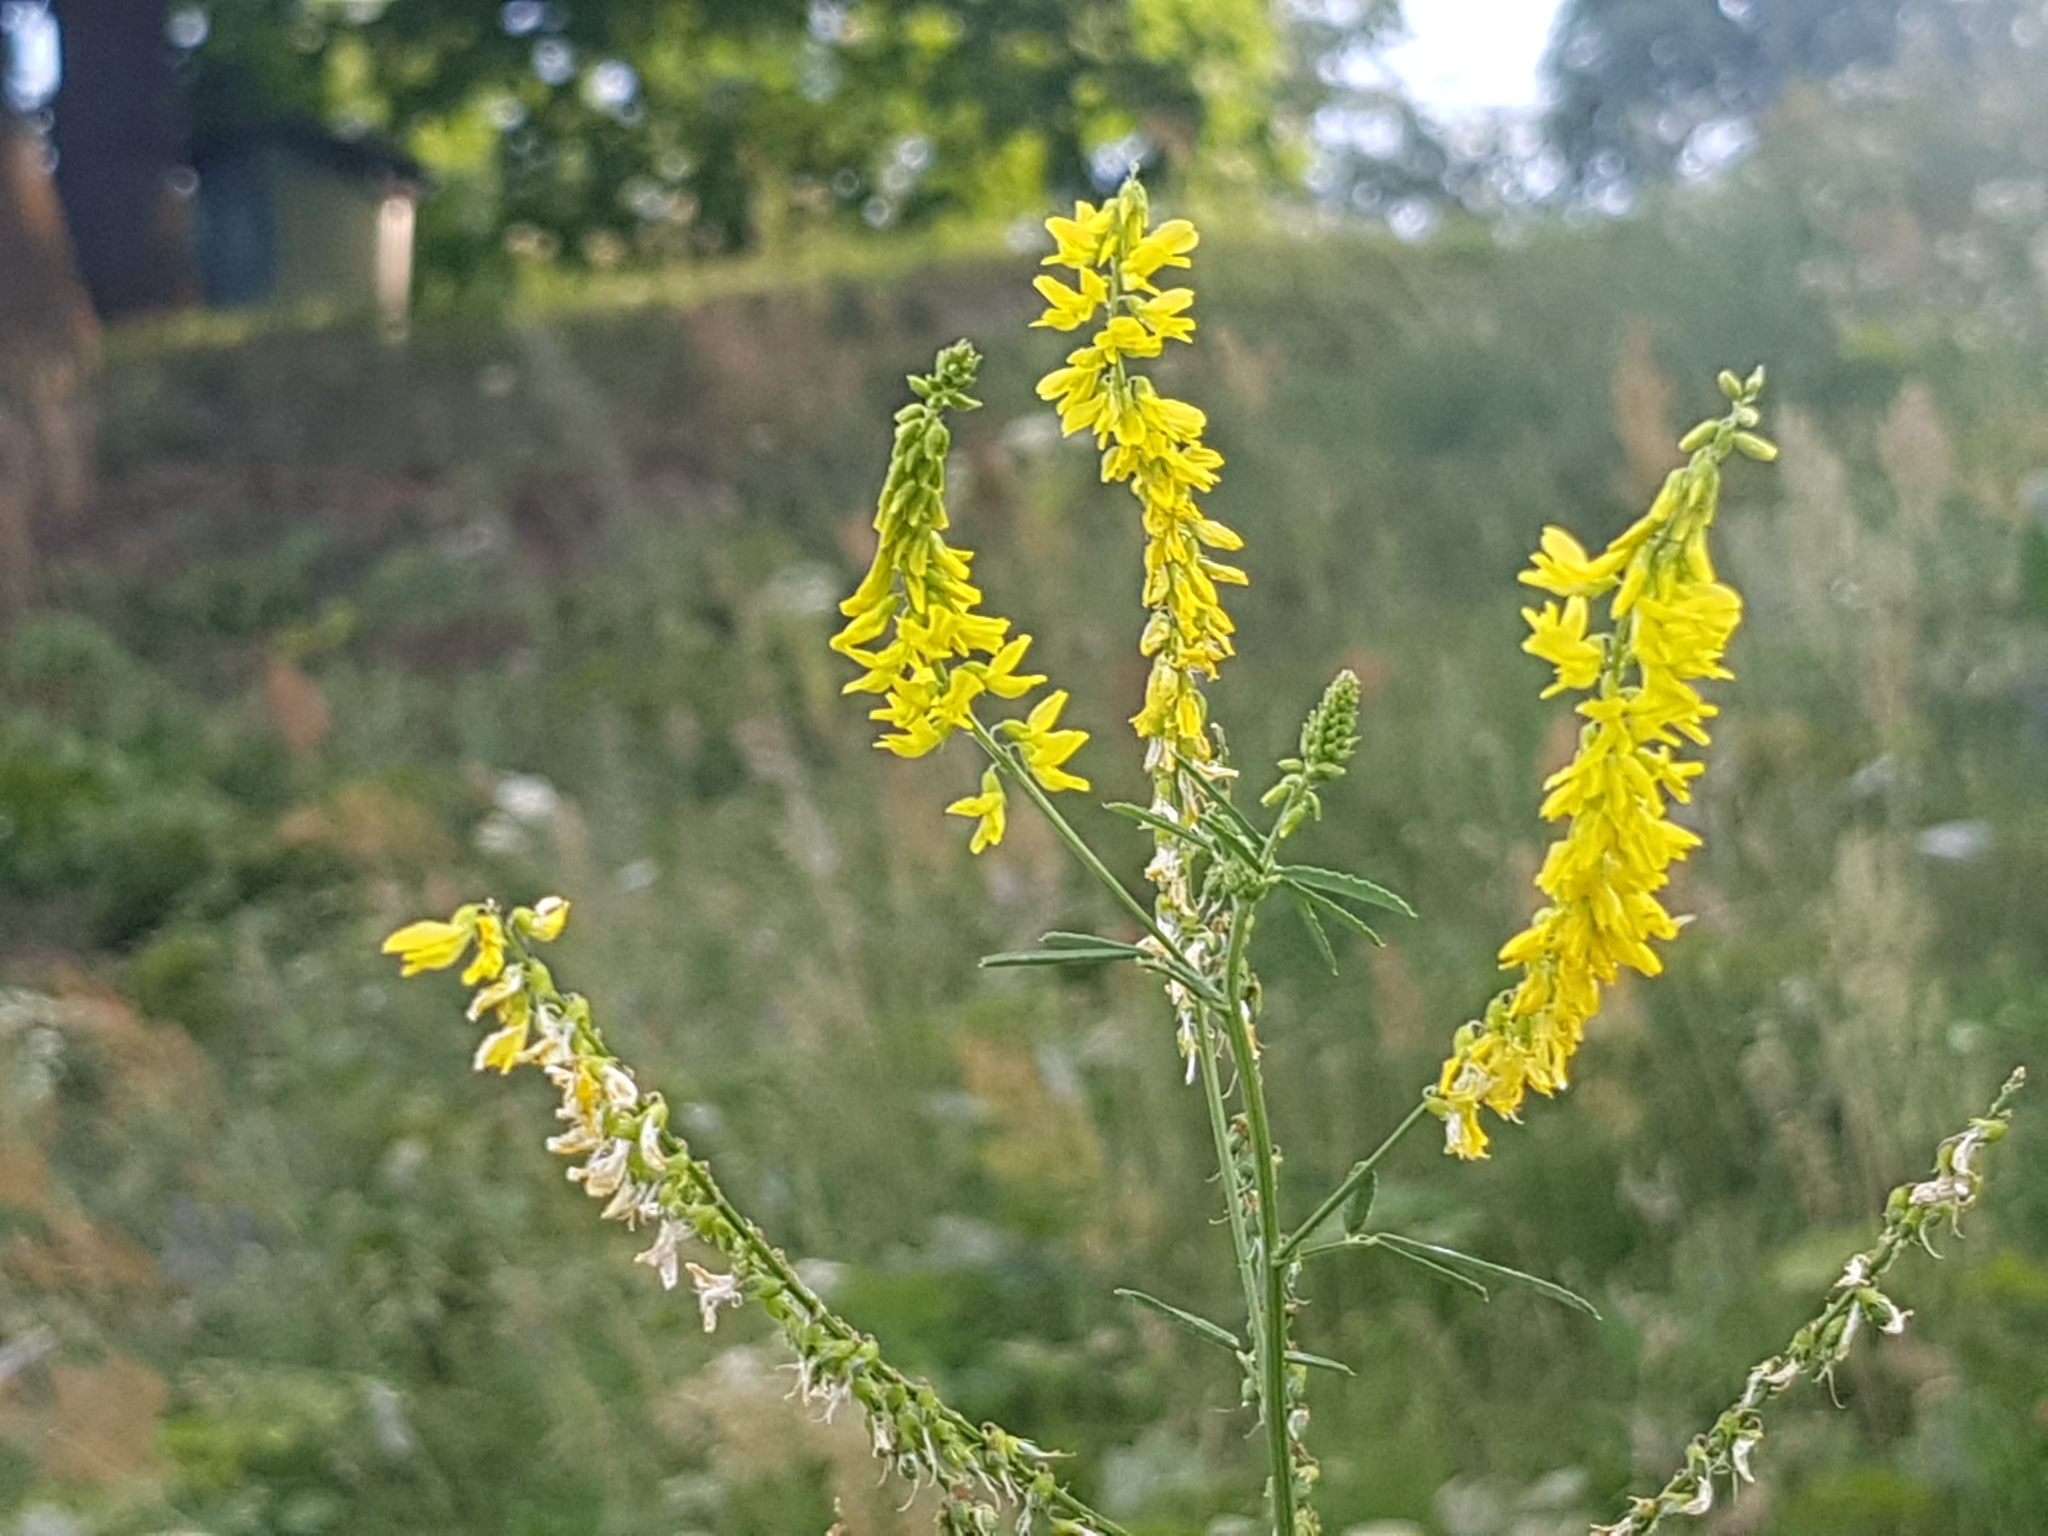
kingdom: Plantae
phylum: Tracheophyta
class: Magnoliopsida
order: Fabales
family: Fabaceae
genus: Melilotus
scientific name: Melilotus officinalis
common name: Sweetclover
